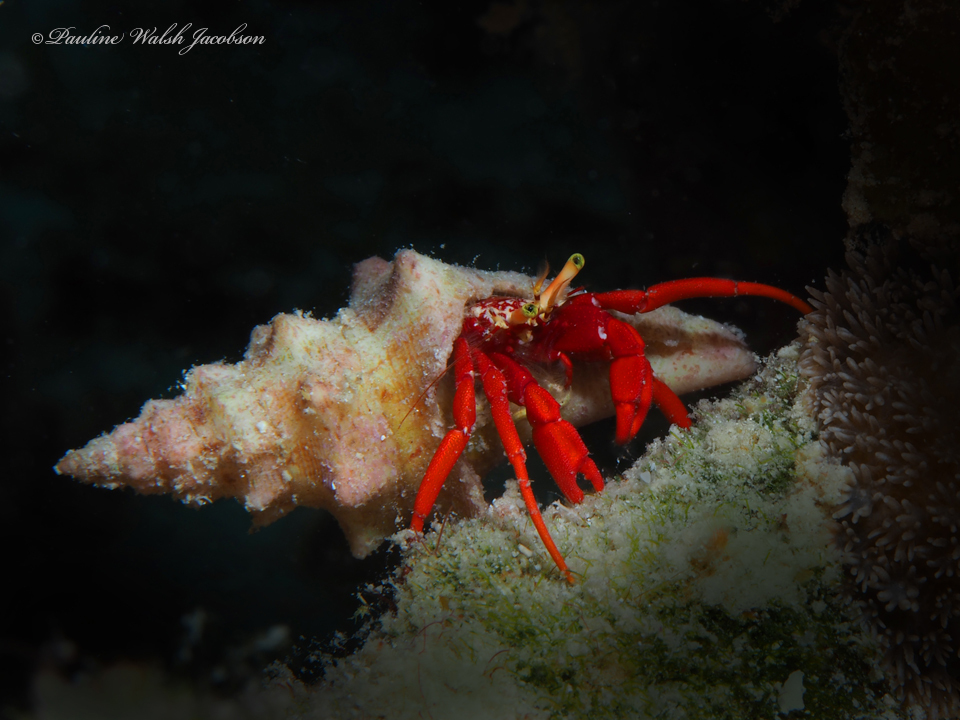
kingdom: Animalia
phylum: Arthropoda
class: Malacostraca
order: Decapoda
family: Diogenidae
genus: Paguristes
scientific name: Paguristes cadenati
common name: Red reef hermit
